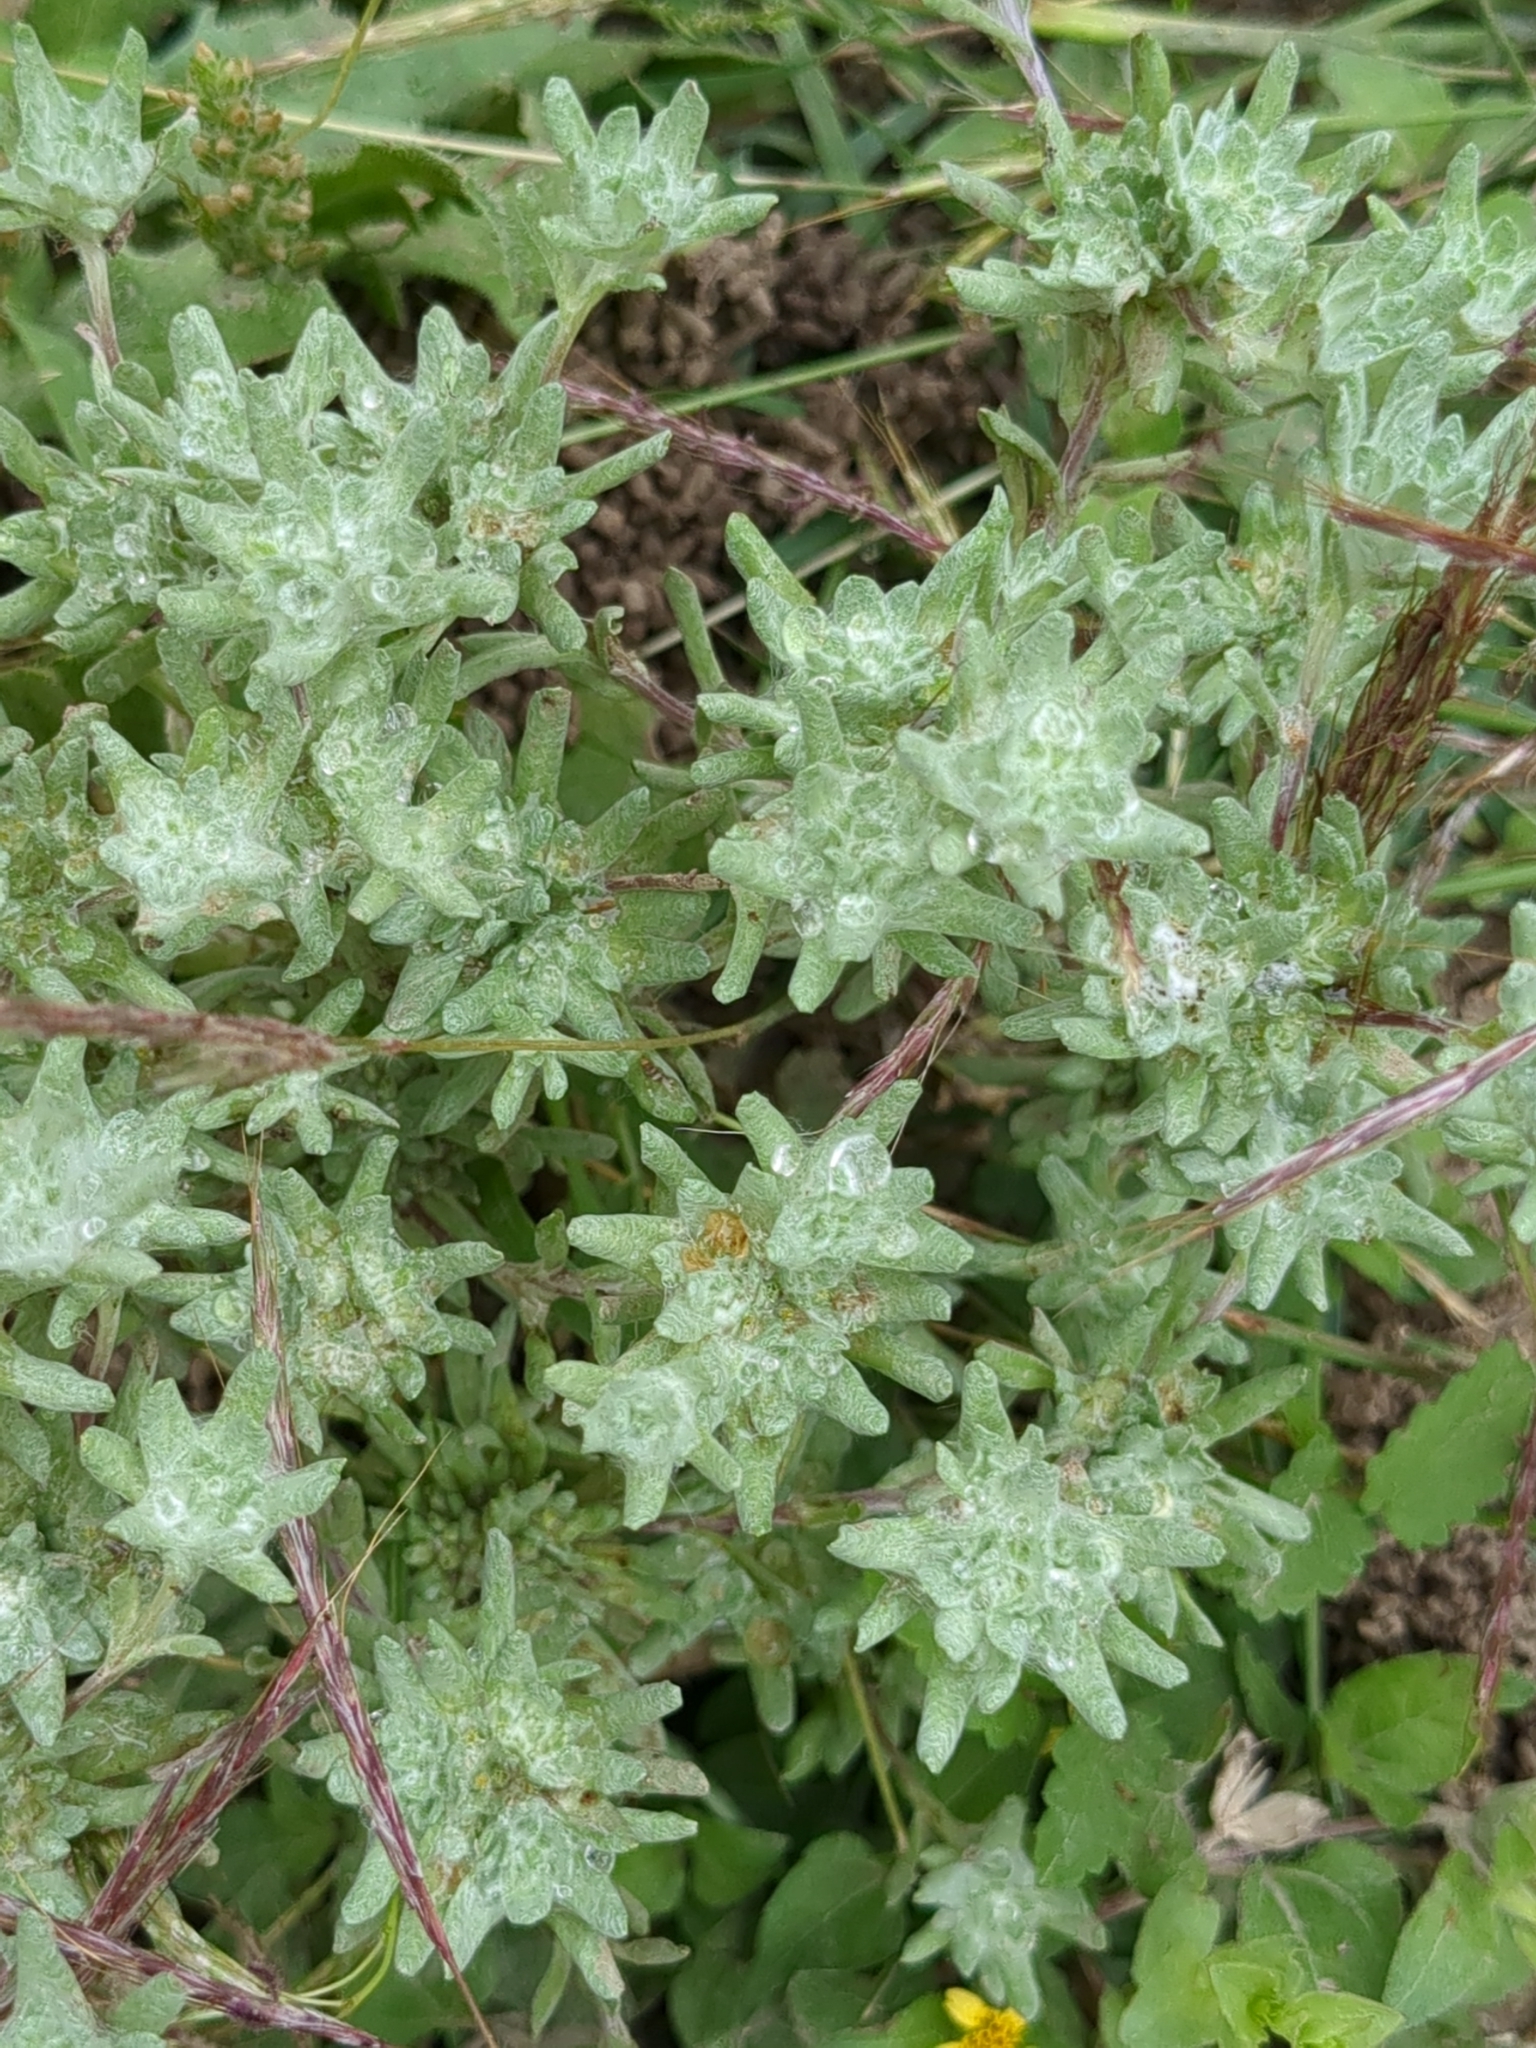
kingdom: Plantae
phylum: Tracheophyta
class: Magnoliopsida
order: Asterales
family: Asteraceae
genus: Diaperia
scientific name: Diaperia prolifera
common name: Big-head rabbit-tobacco
